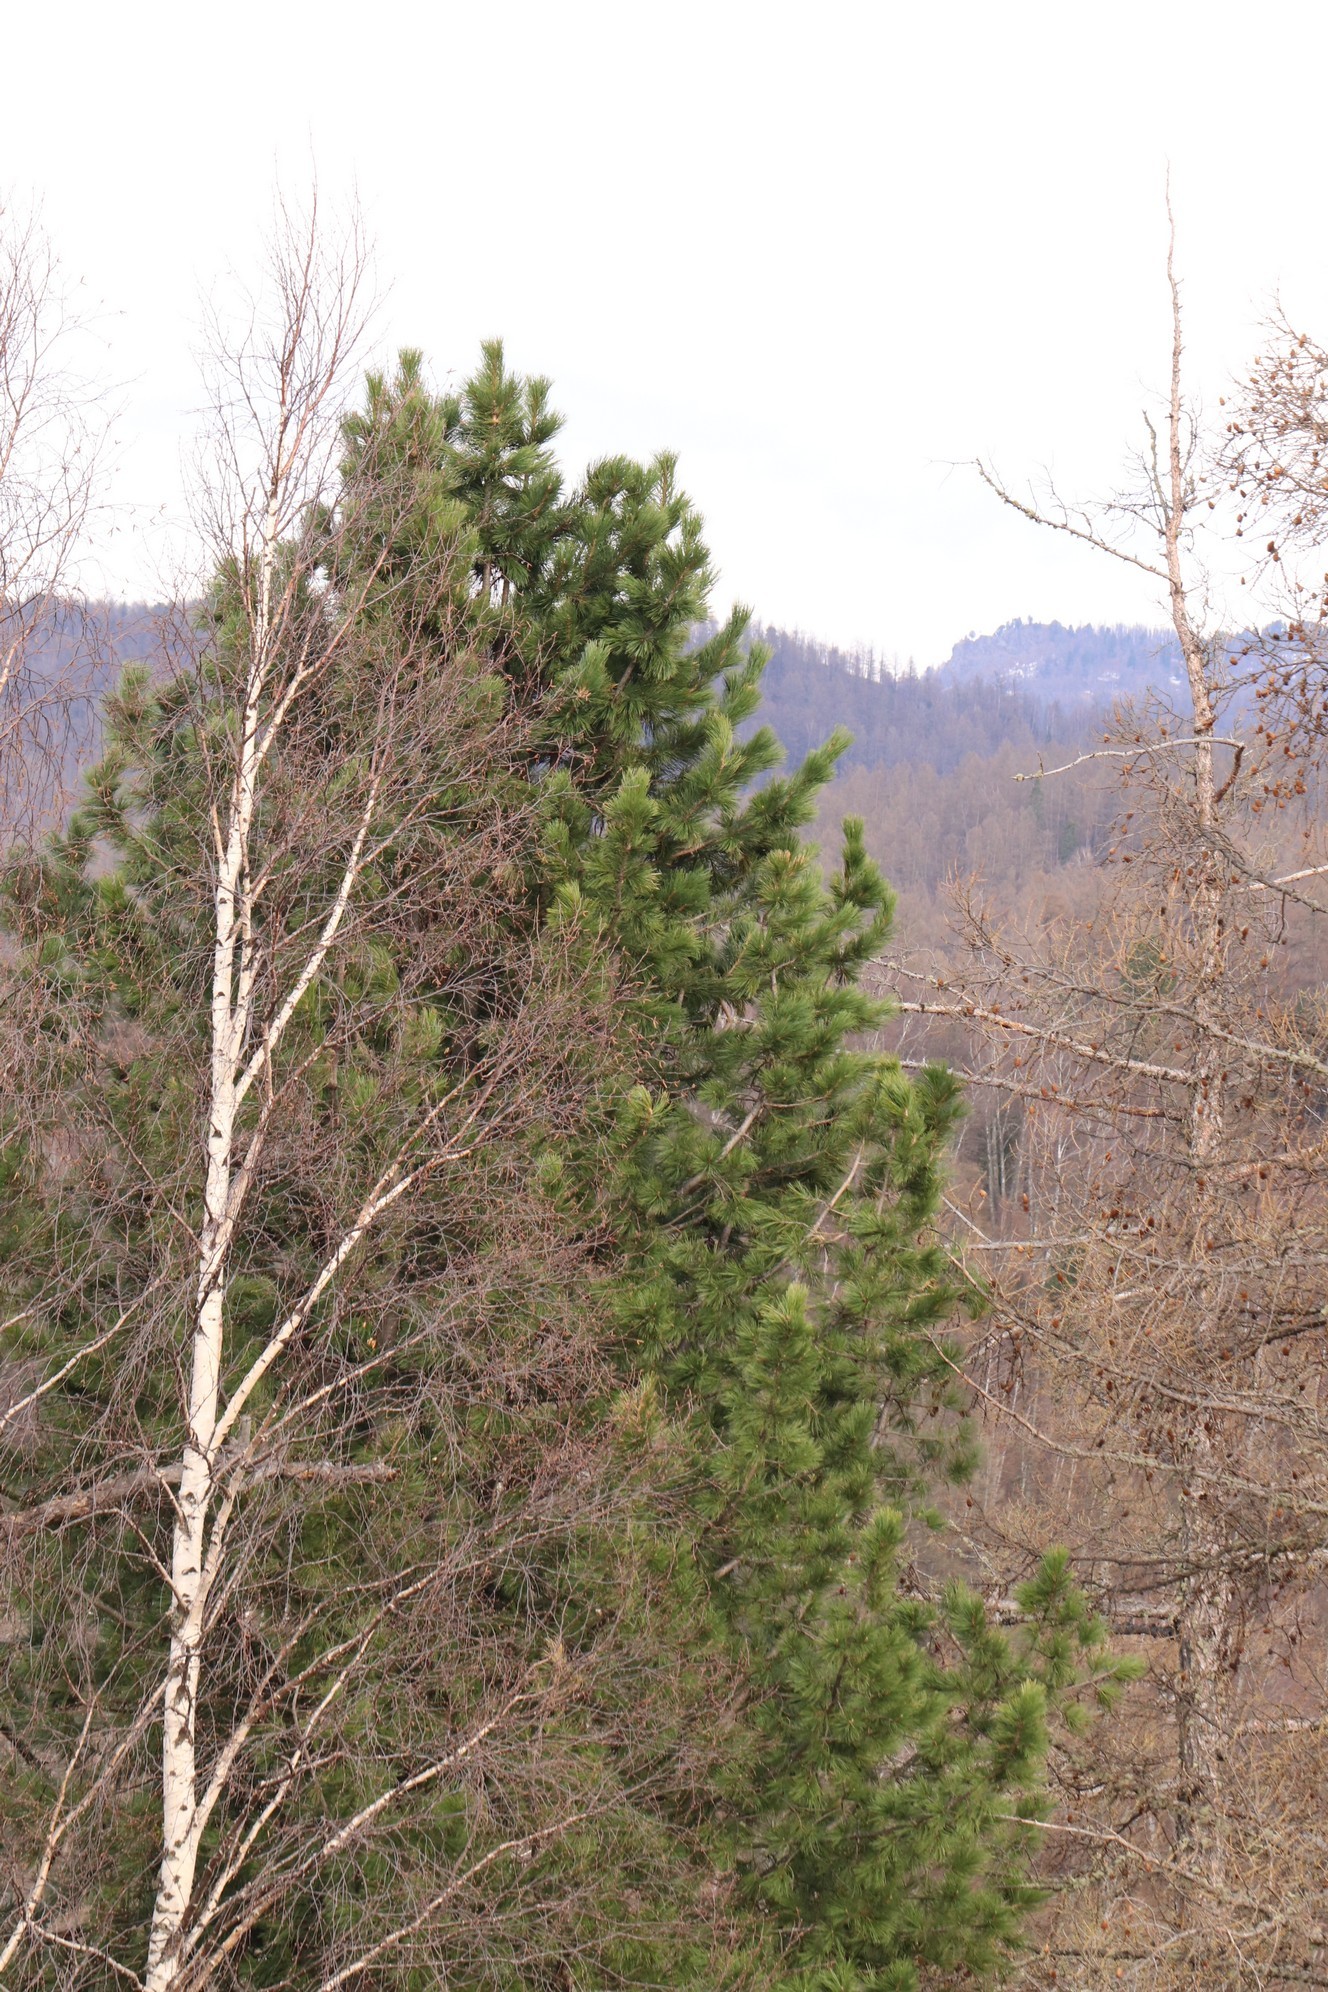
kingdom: Plantae
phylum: Tracheophyta
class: Pinopsida
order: Pinales
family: Pinaceae
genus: Pinus
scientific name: Pinus sibirica
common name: Siberian pine
